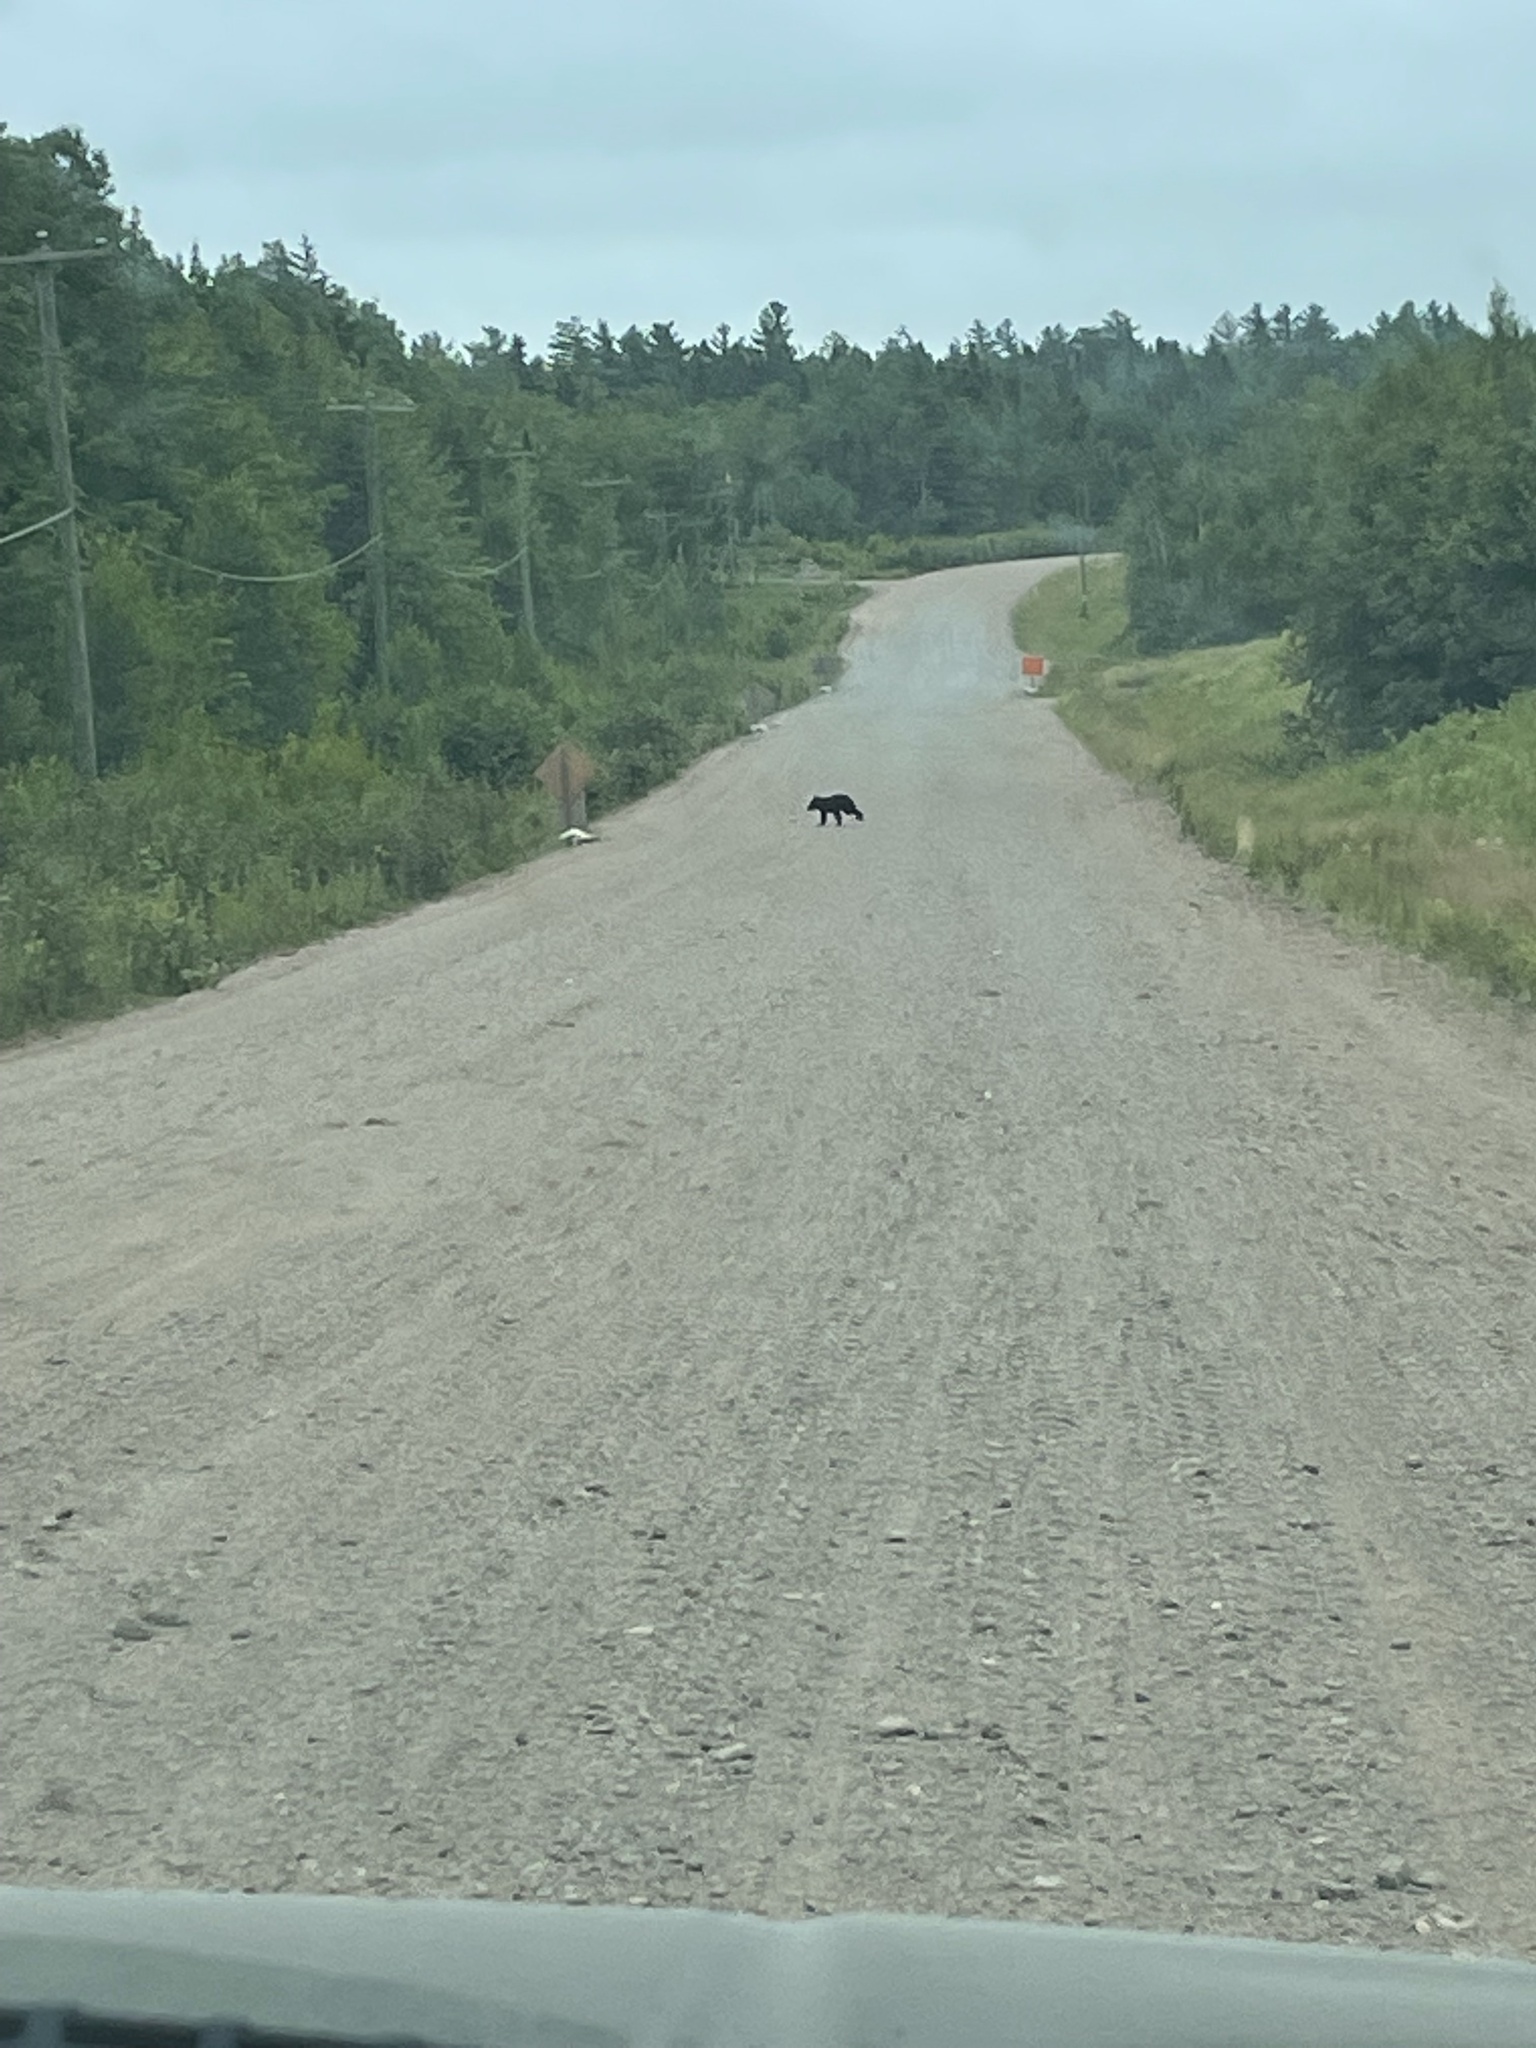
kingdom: Animalia
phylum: Chordata
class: Mammalia
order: Carnivora
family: Ursidae
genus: Ursus
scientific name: Ursus americanus
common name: American black bear
